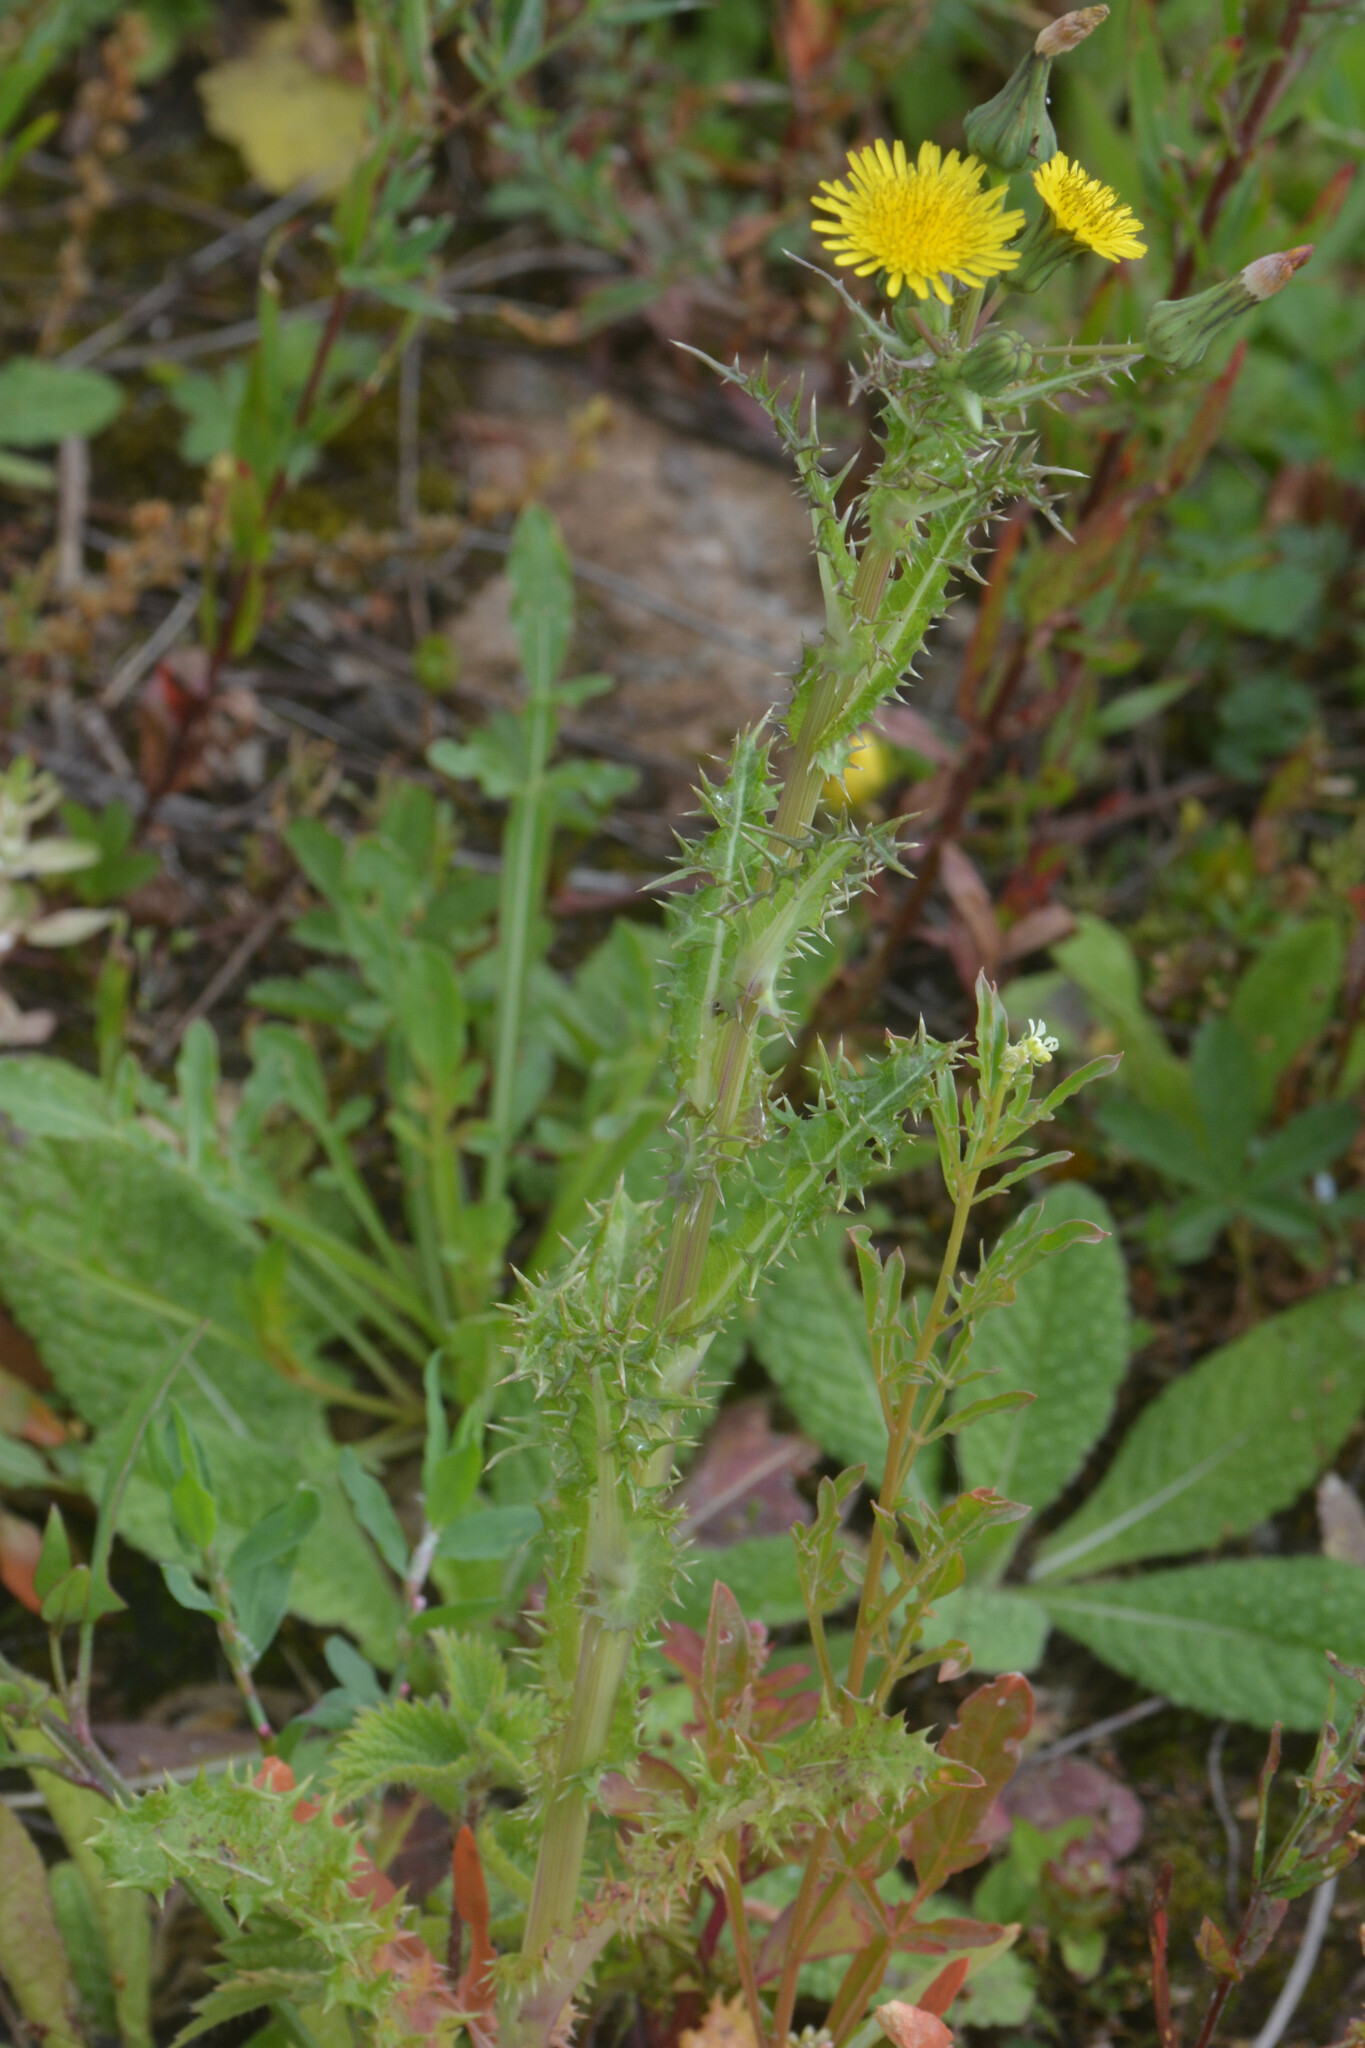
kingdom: Plantae
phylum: Tracheophyta
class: Magnoliopsida
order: Asterales
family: Asteraceae
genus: Sonchus
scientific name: Sonchus asper
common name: Prickly sow-thistle
